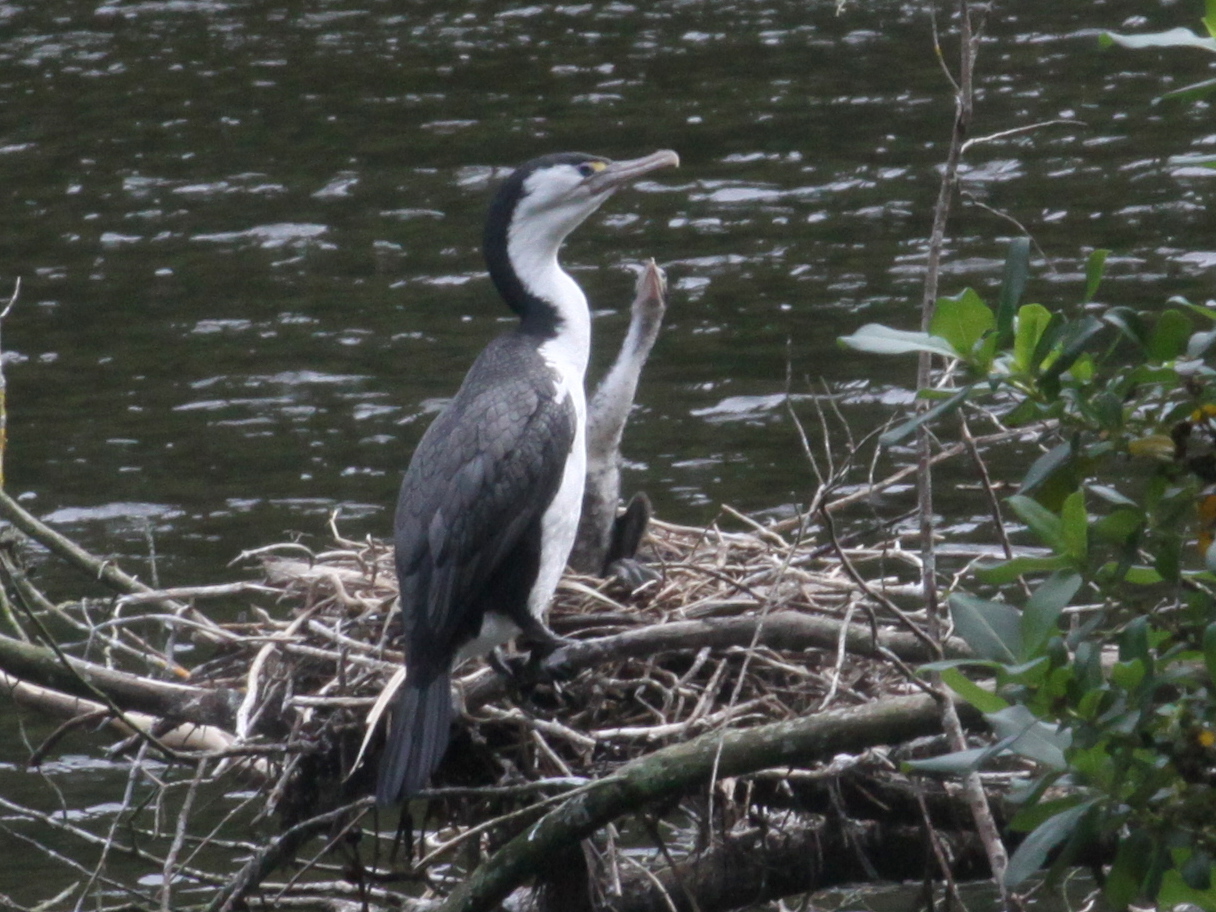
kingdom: Animalia
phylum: Chordata
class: Aves
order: Suliformes
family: Phalacrocoracidae
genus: Phalacrocorax
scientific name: Phalacrocorax varius
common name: Pied cormorant
